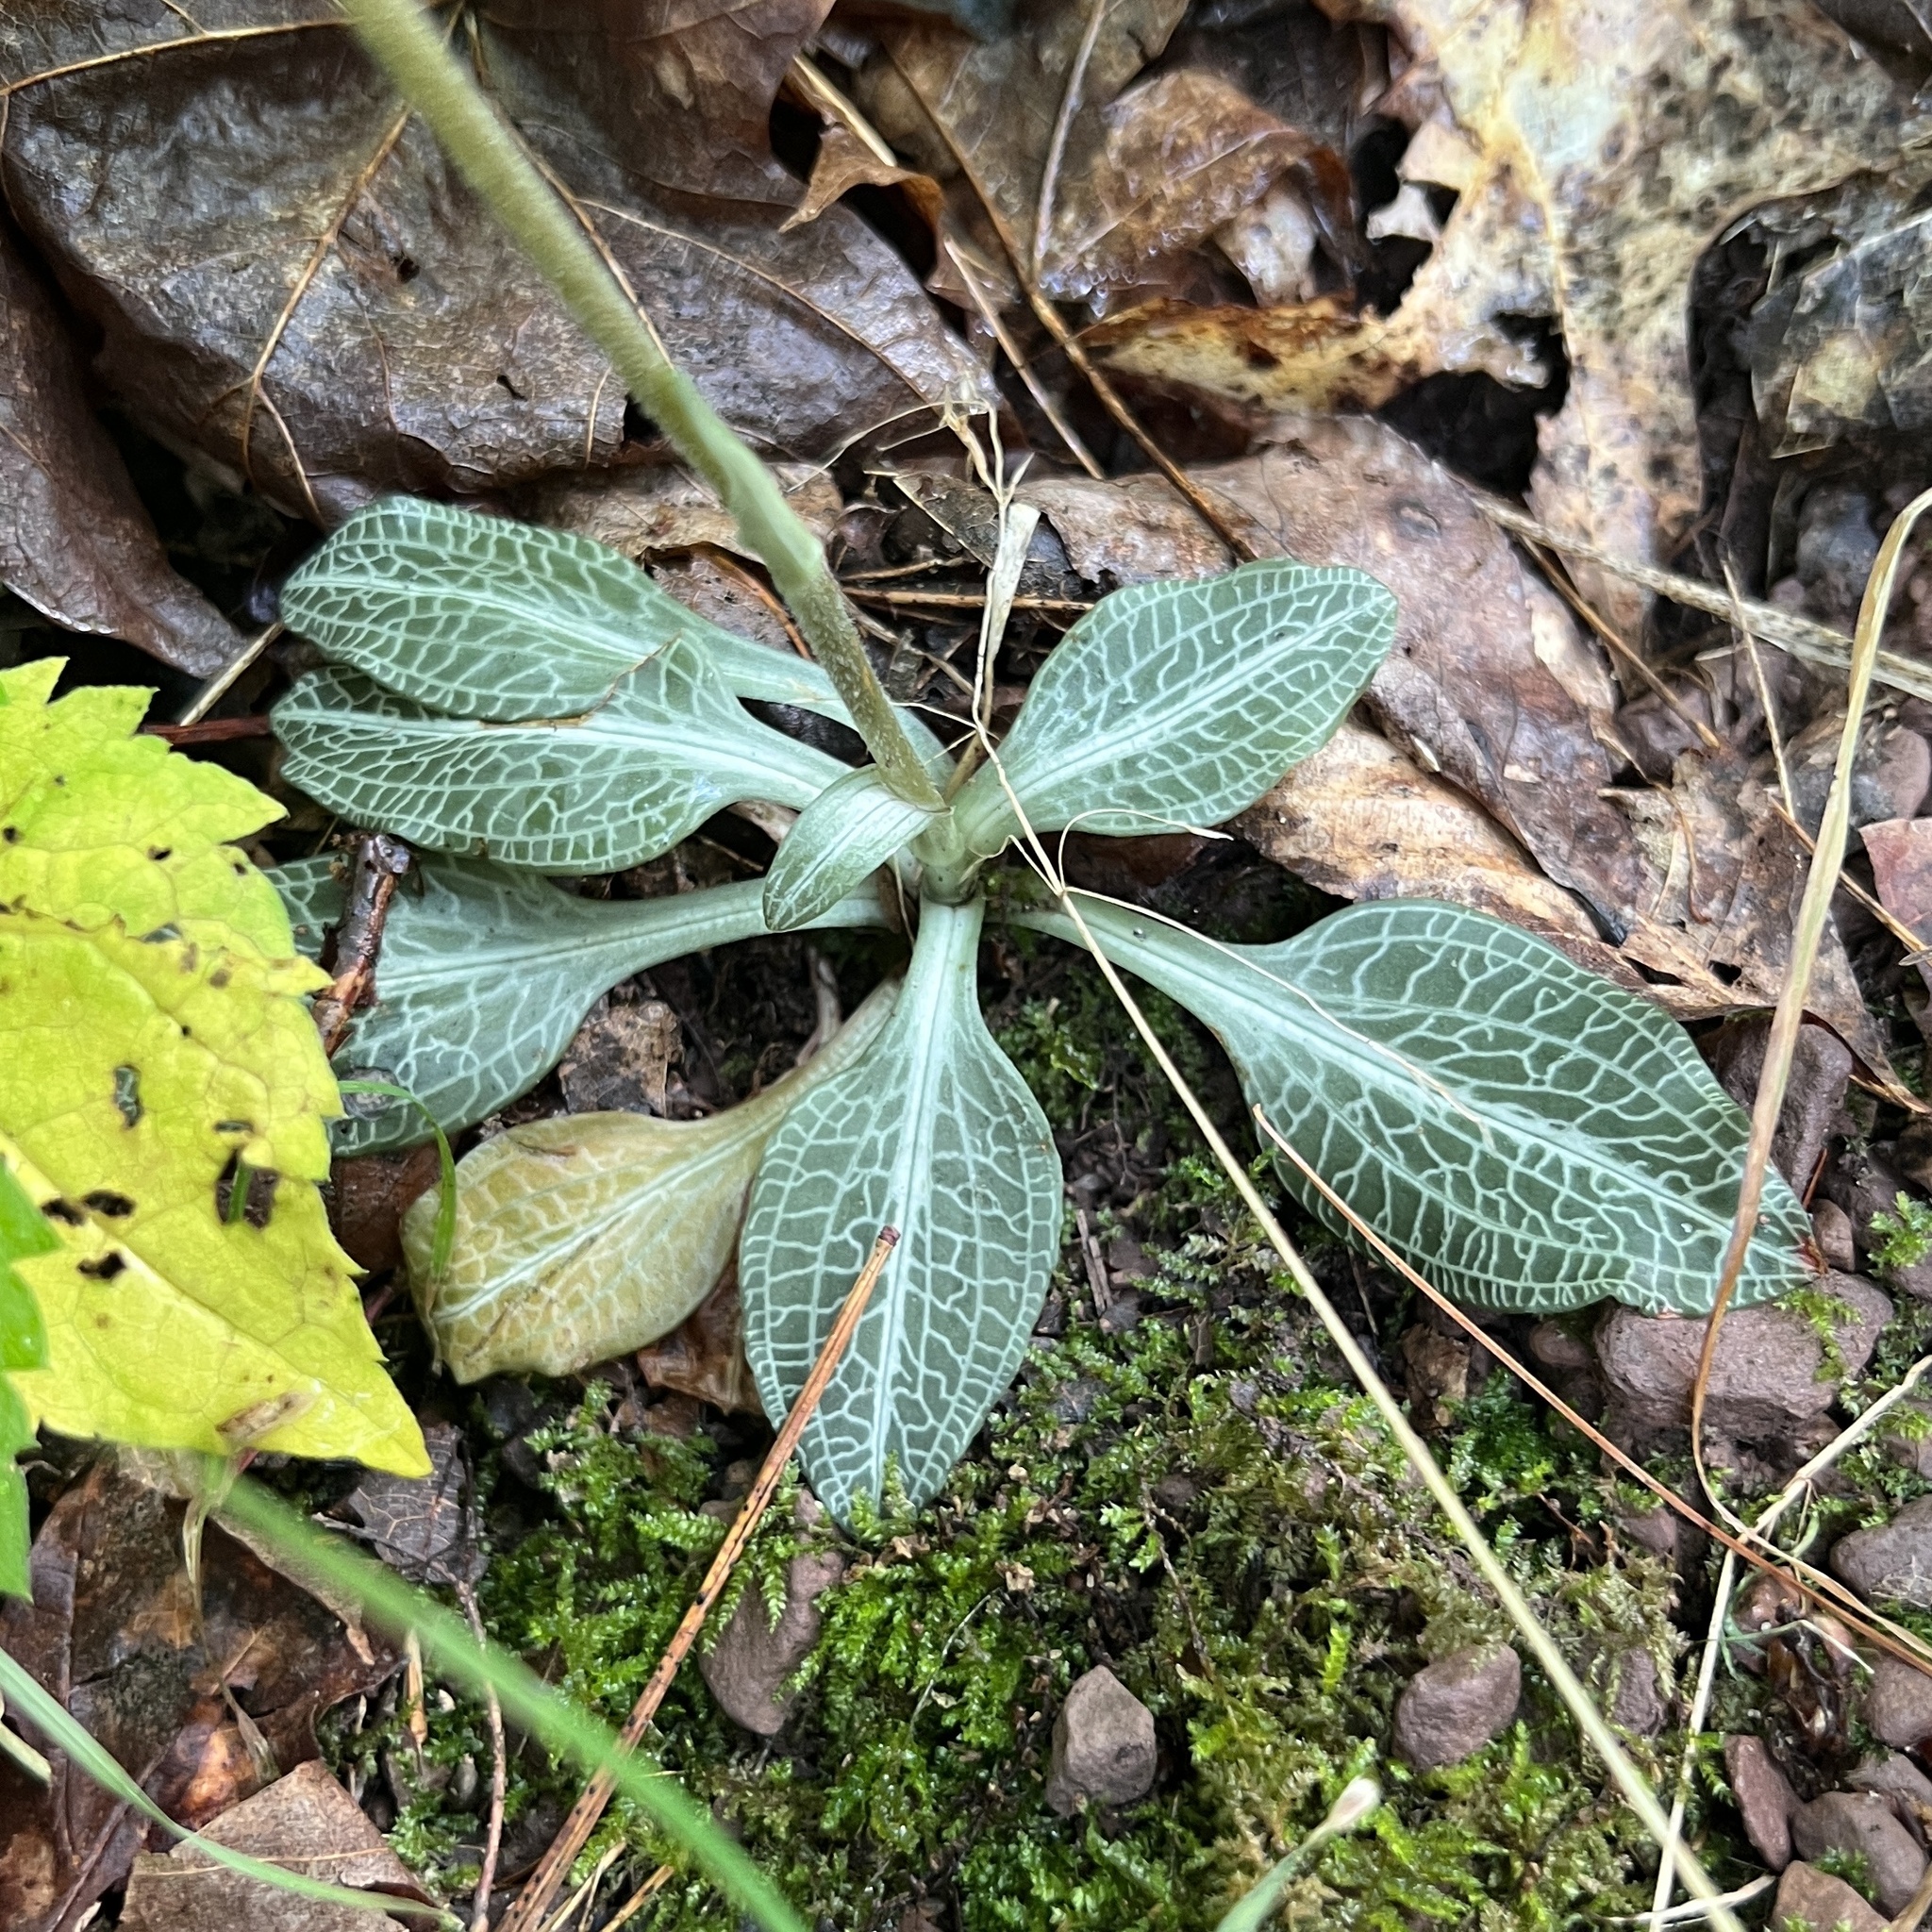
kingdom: Plantae
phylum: Tracheophyta
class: Liliopsida
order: Asparagales
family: Orchidaceae
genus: Goodyera
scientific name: Goodyera pubescens
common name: Downy rattlesnake-plantain
